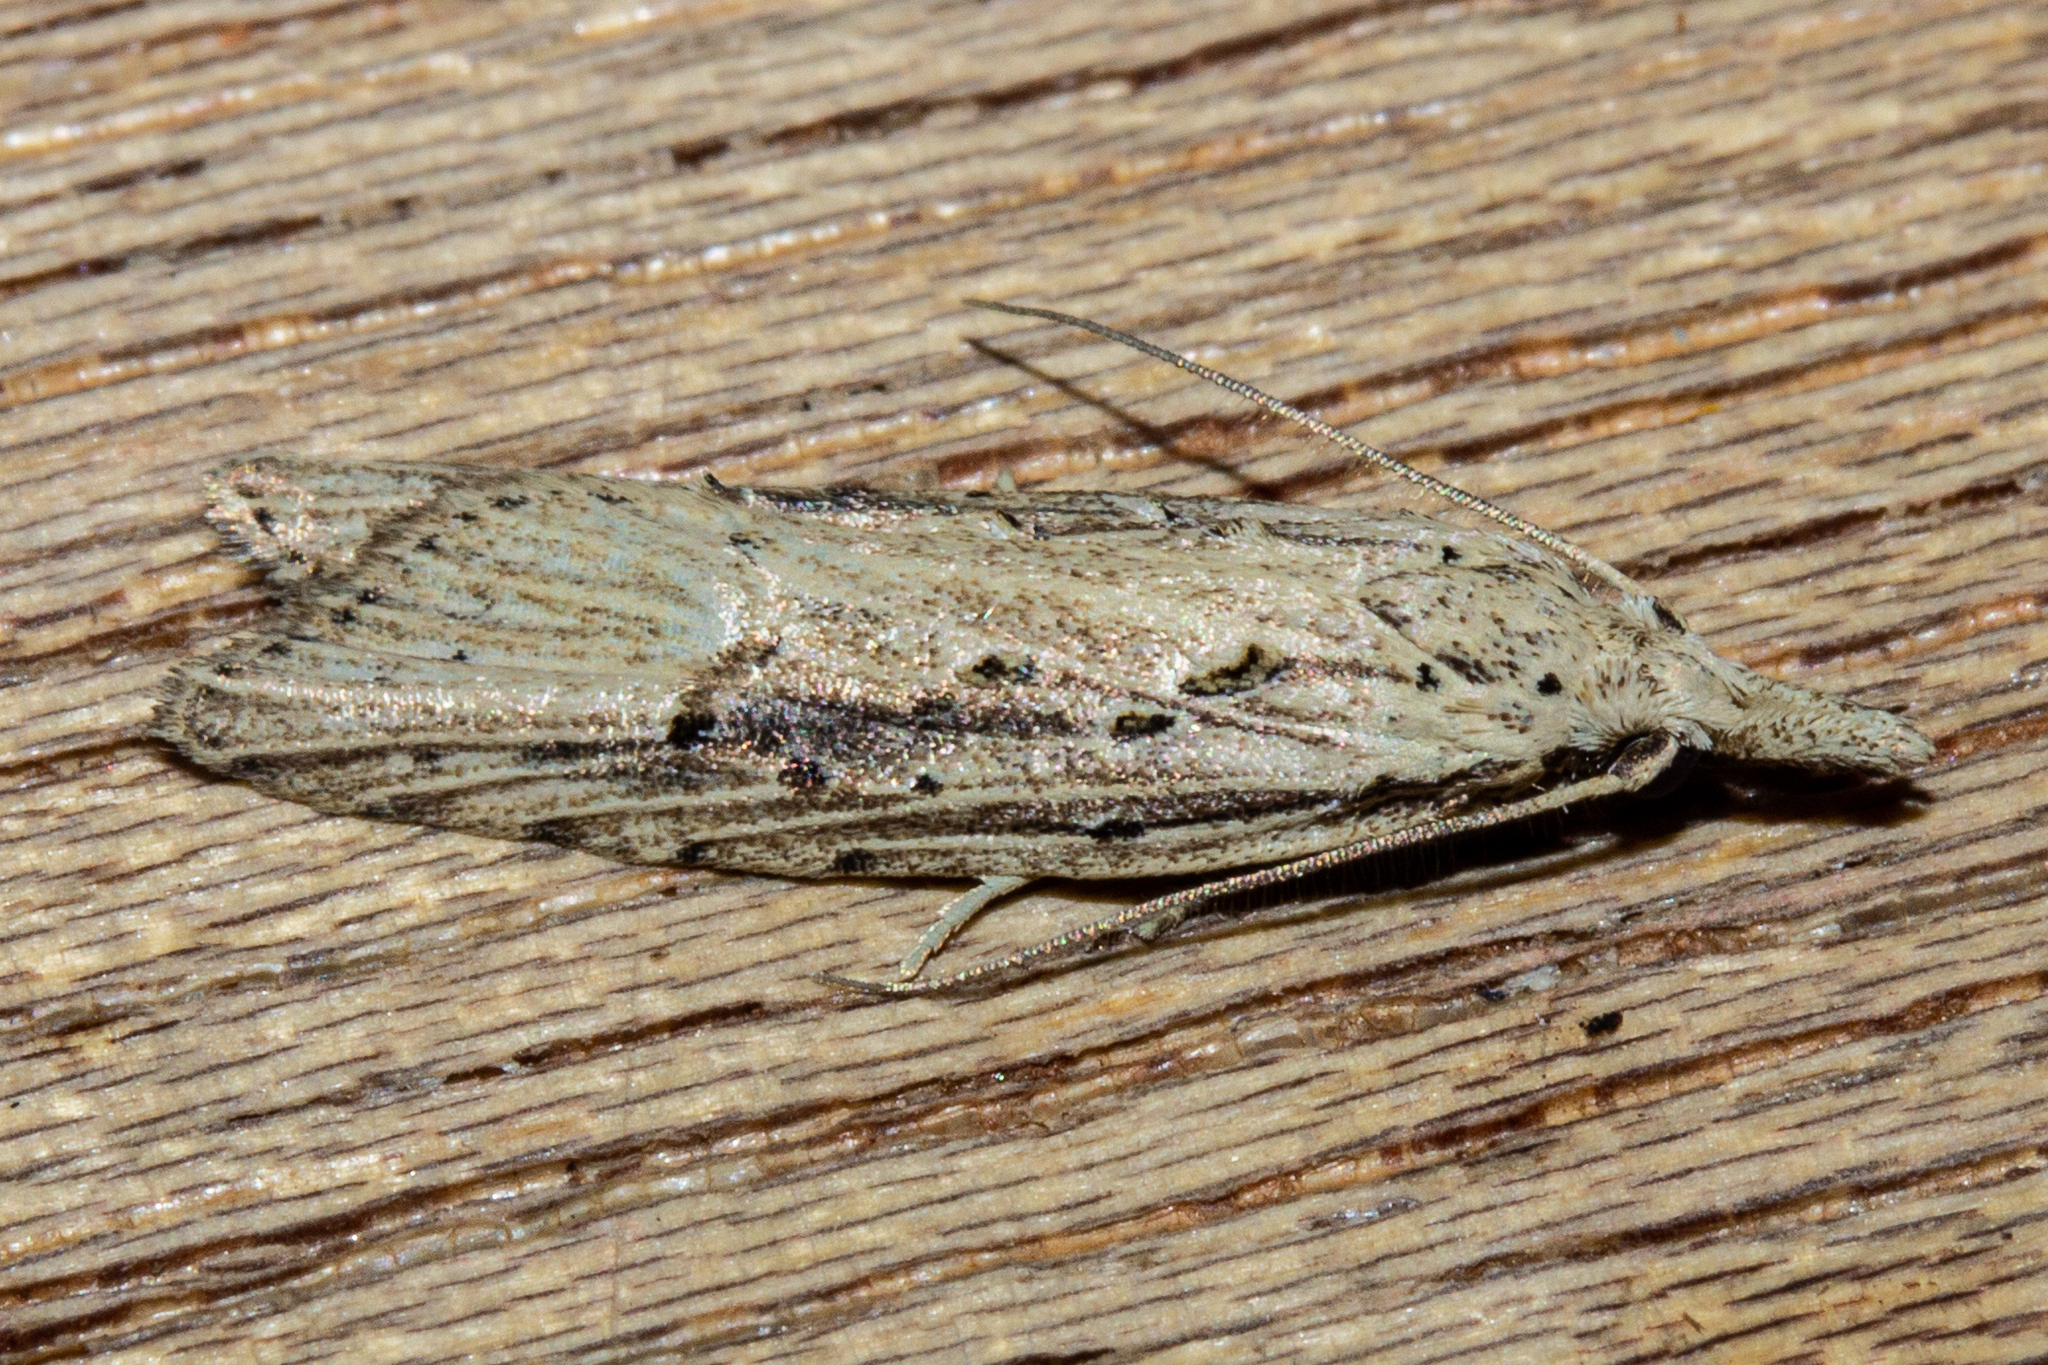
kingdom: Animalia
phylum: Arthropoda
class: Insecta
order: Lepidoptera
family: Carposinidae
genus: Carposina
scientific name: Carposina Heterocrossa exochana
